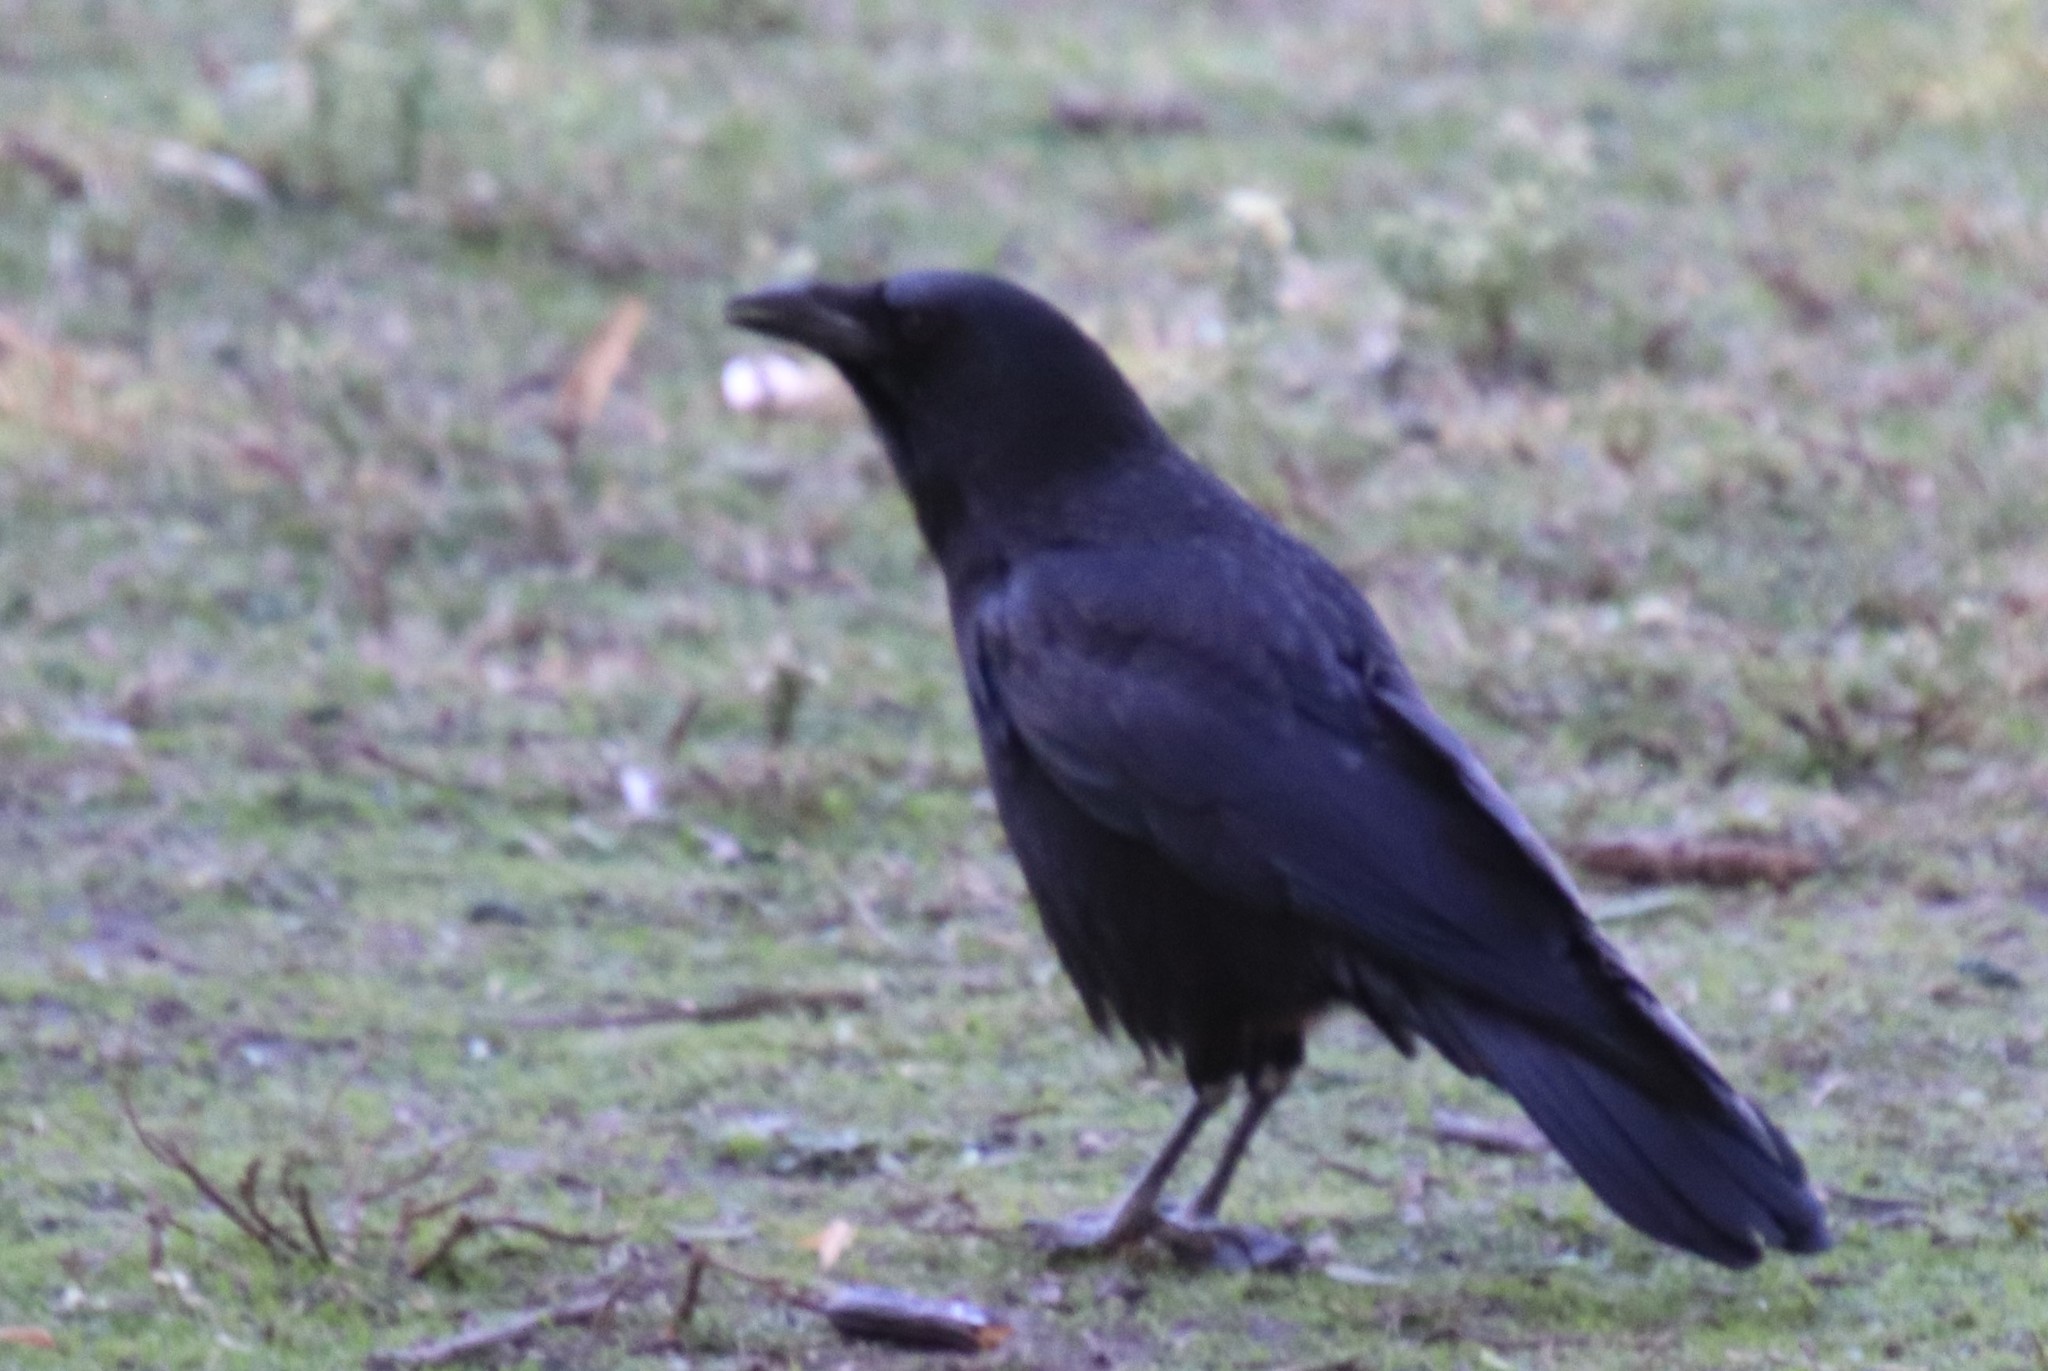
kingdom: Animalia
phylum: Chordata
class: Aves
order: Passeriformes
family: Corvidae
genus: Corvus
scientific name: Corvus brachyrhynchos
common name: American crow
